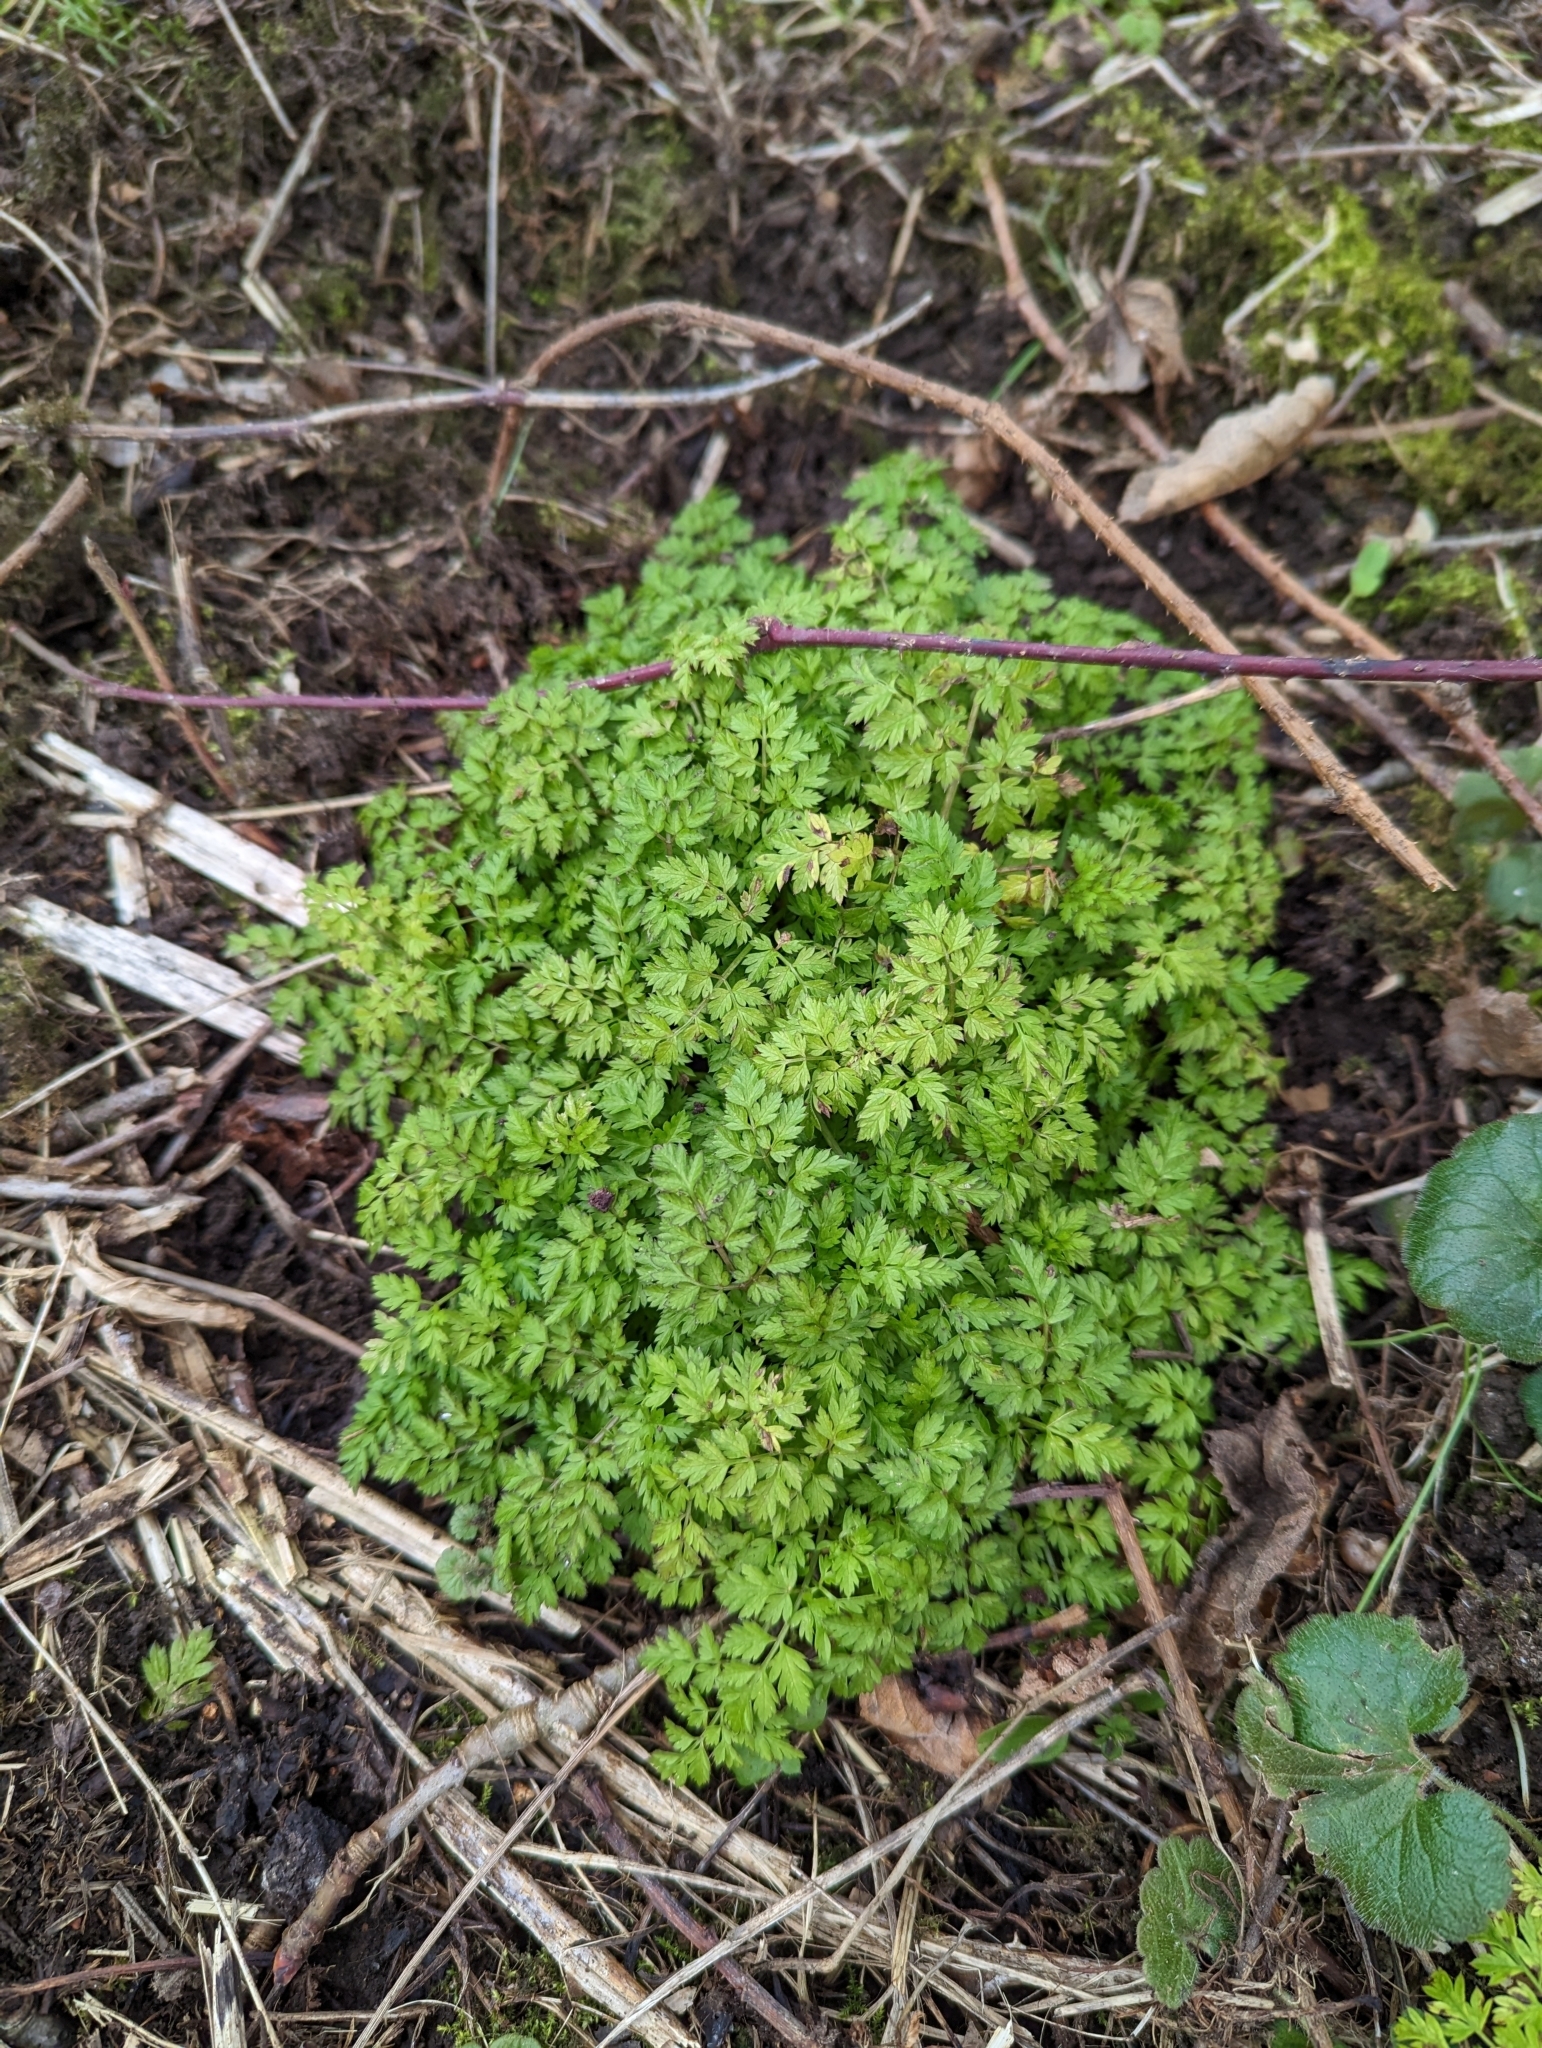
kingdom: Plantae
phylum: Tracheophyta
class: Magnoliopsida
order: Apiales
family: Apiaceae
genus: Anthriscus
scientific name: Anthriscus sylvestris
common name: Cow parsley
